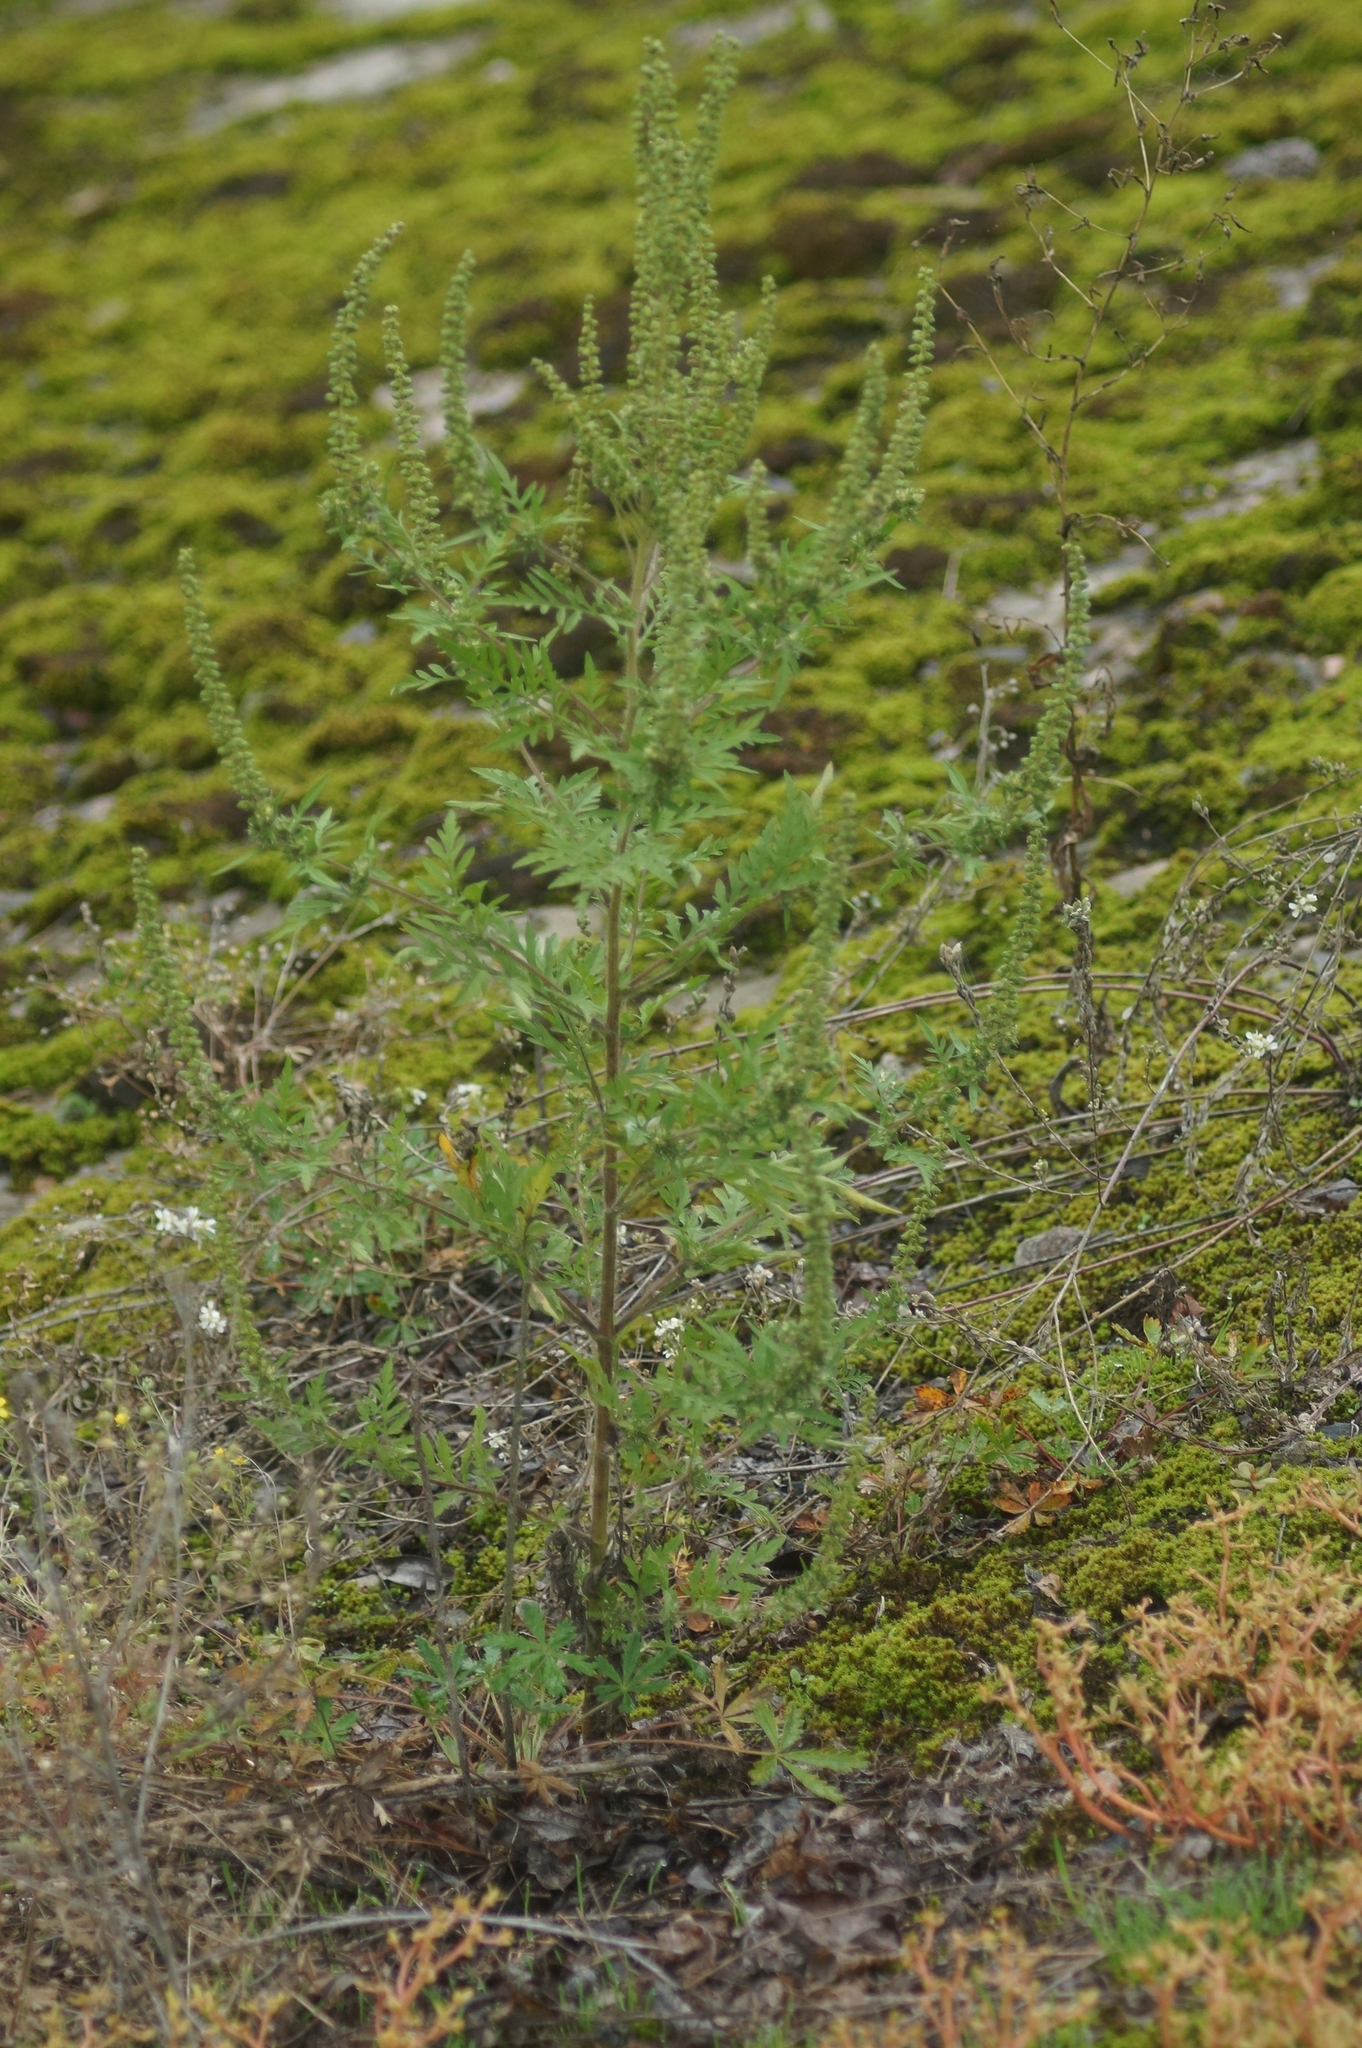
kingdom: Plantae
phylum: Tracheophyta
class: Magnoliopsida
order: Asterales
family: Asteraceae
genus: Ambrosia
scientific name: Ambrosia artemisiifolia
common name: Annual ragweed
